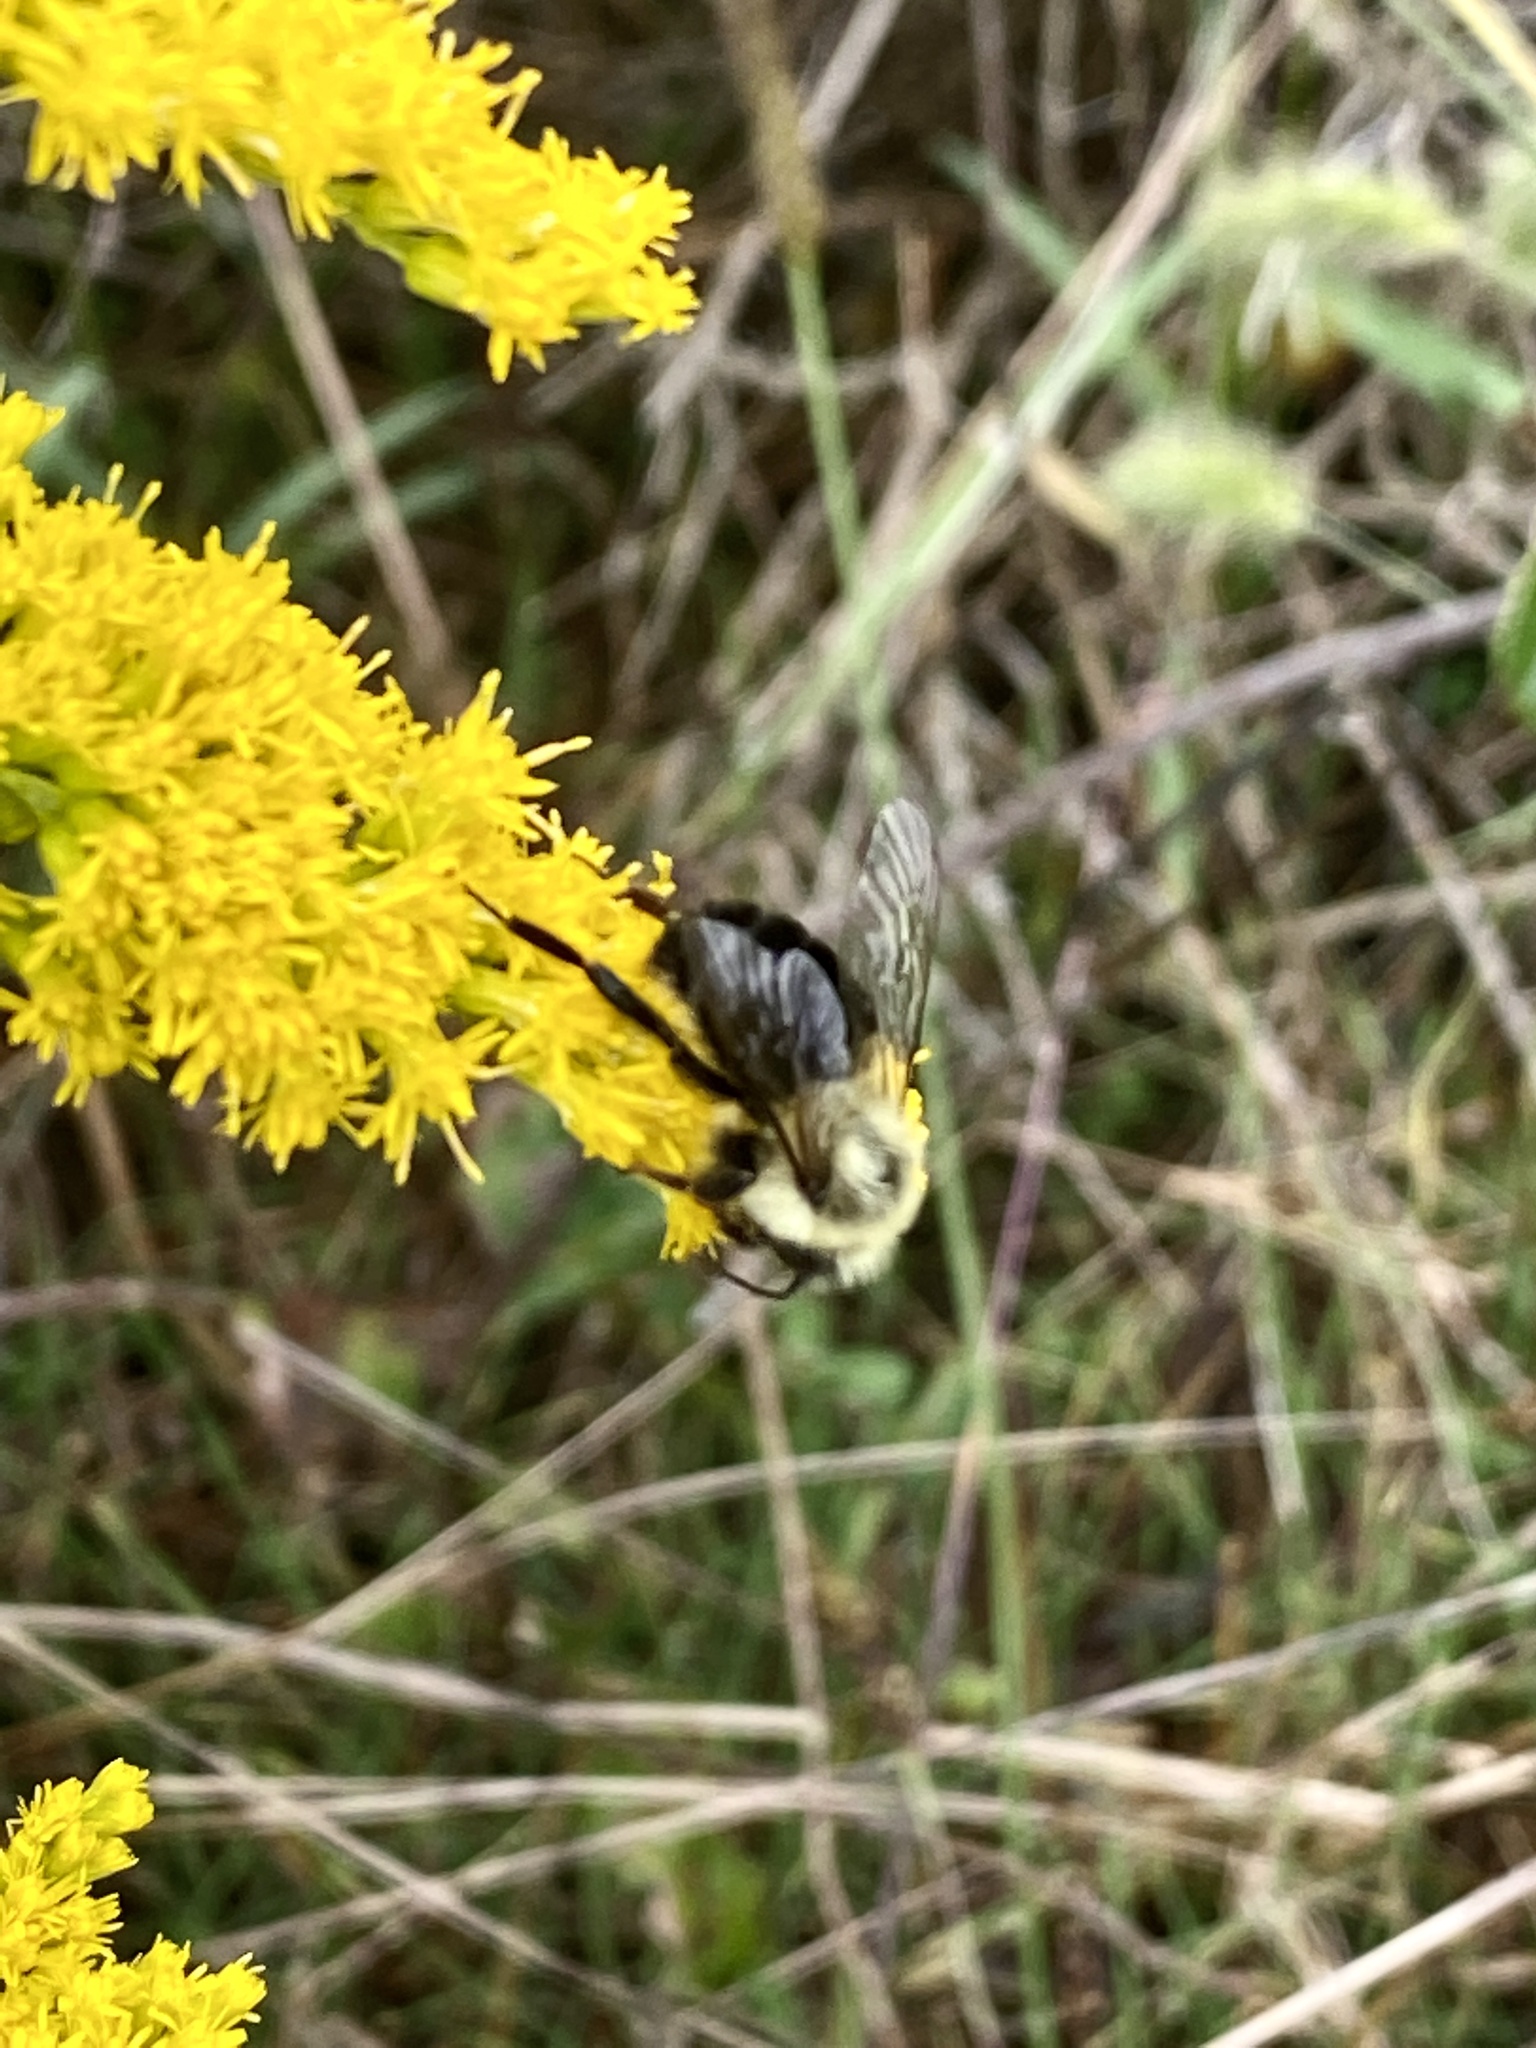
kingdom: Animalia
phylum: Arthropoda
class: Insecta
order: Hymenoptera
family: Apidae
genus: Bombus
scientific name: Bombus impatiens
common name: Common eastern bumble bee
